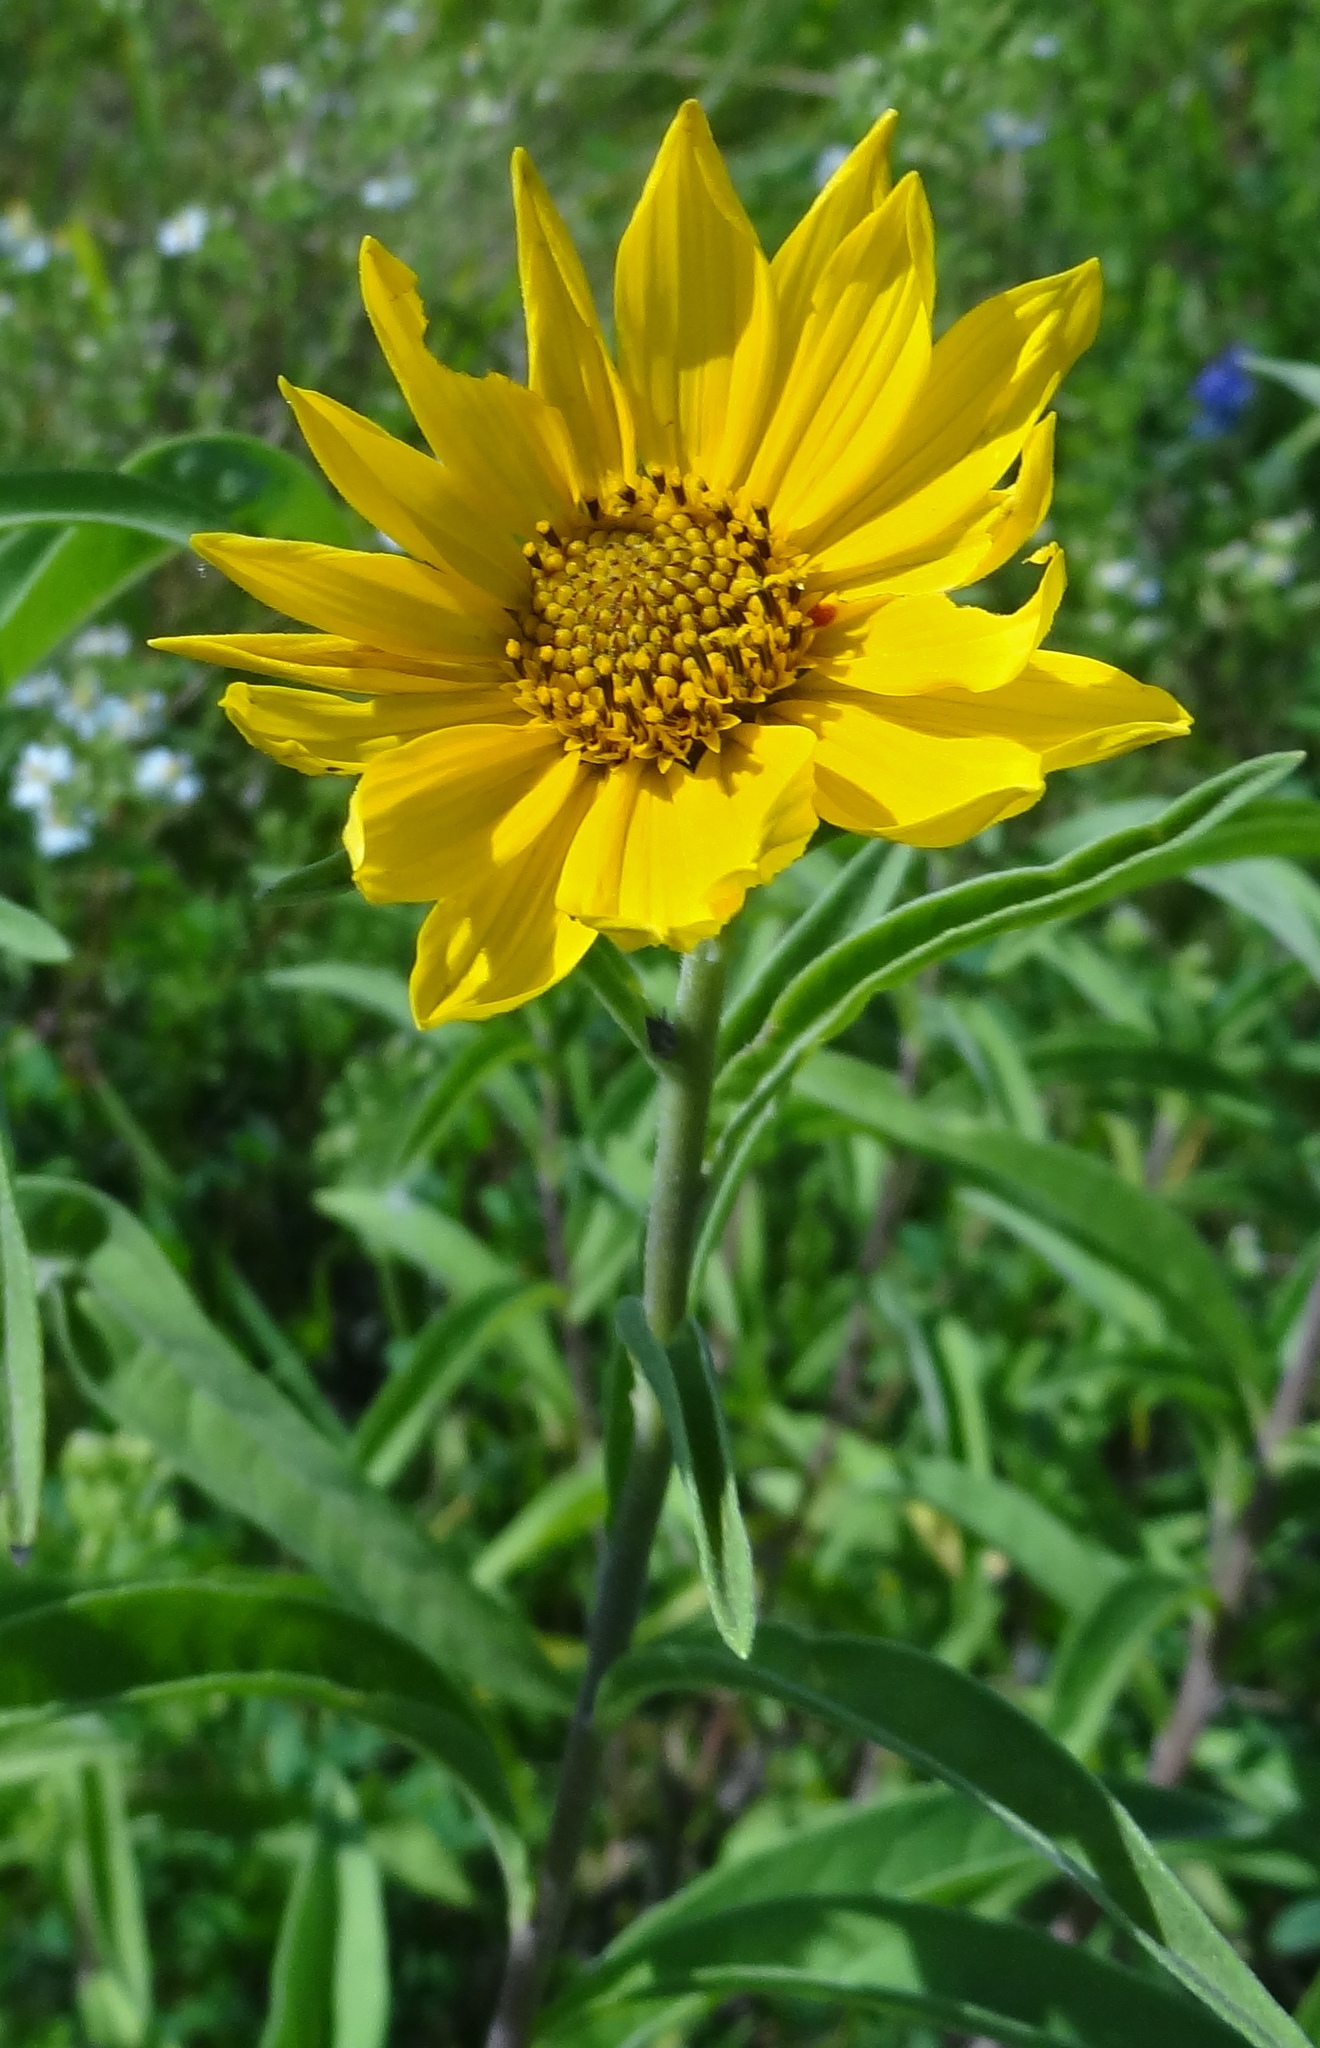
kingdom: Plantae
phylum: Tracheophyta
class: Magnoliopsida
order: Asterales
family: Asteraceae
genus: Helianthus
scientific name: Helianthus maximiliani
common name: Maximilian's sunflower
